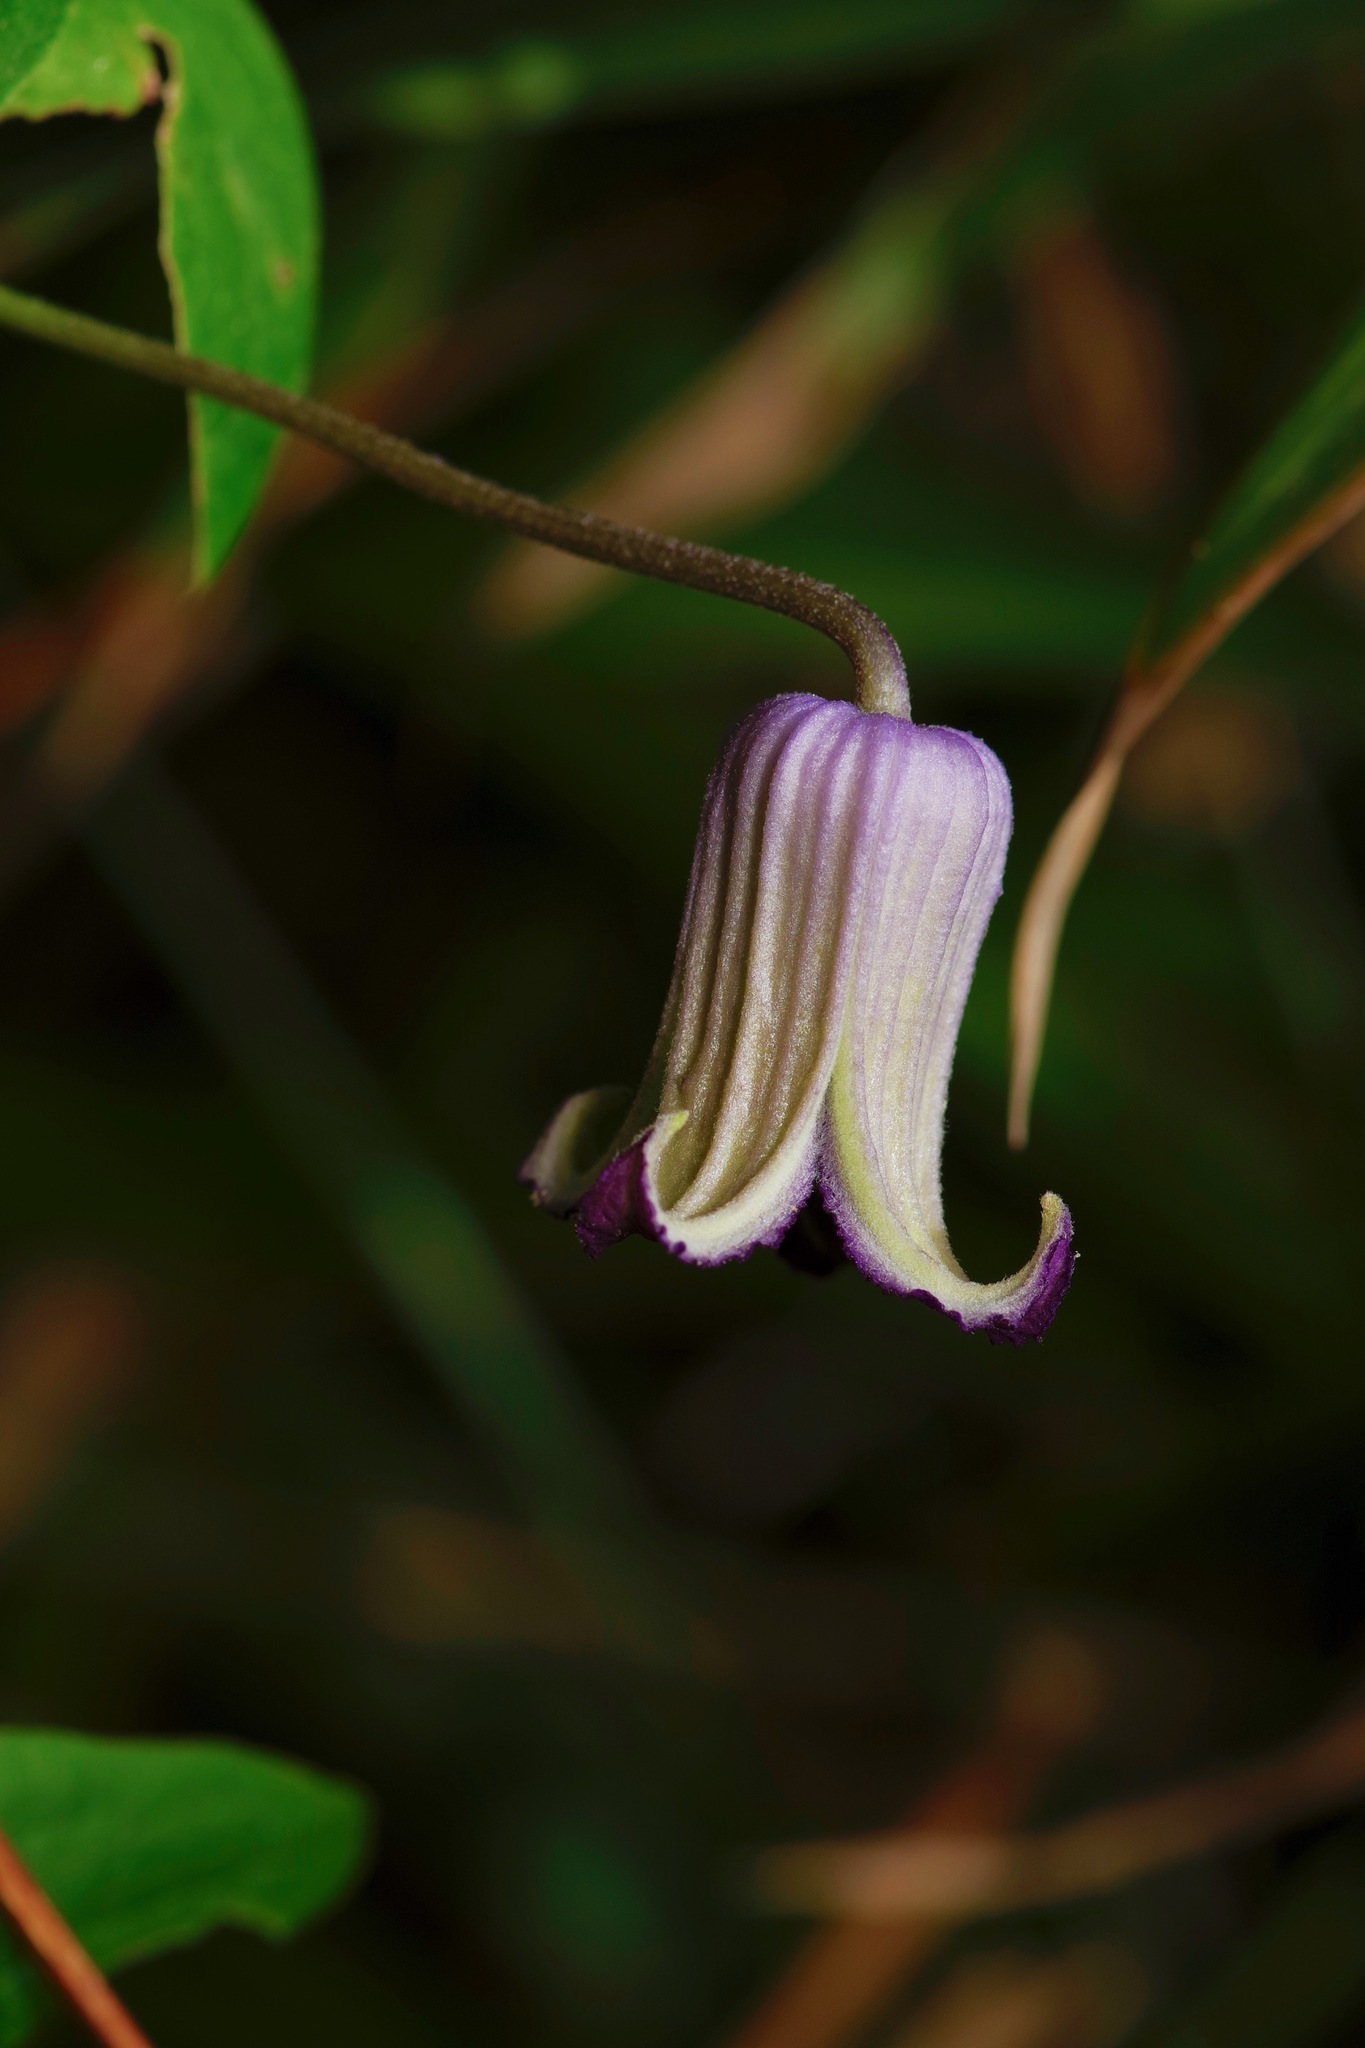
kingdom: Plantae
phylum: Tracheophyta
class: Magnoliopsida
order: Ranunculales
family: Ranunculaceae
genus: Clematis
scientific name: Clematis pitcheri
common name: Bellflower clematis
